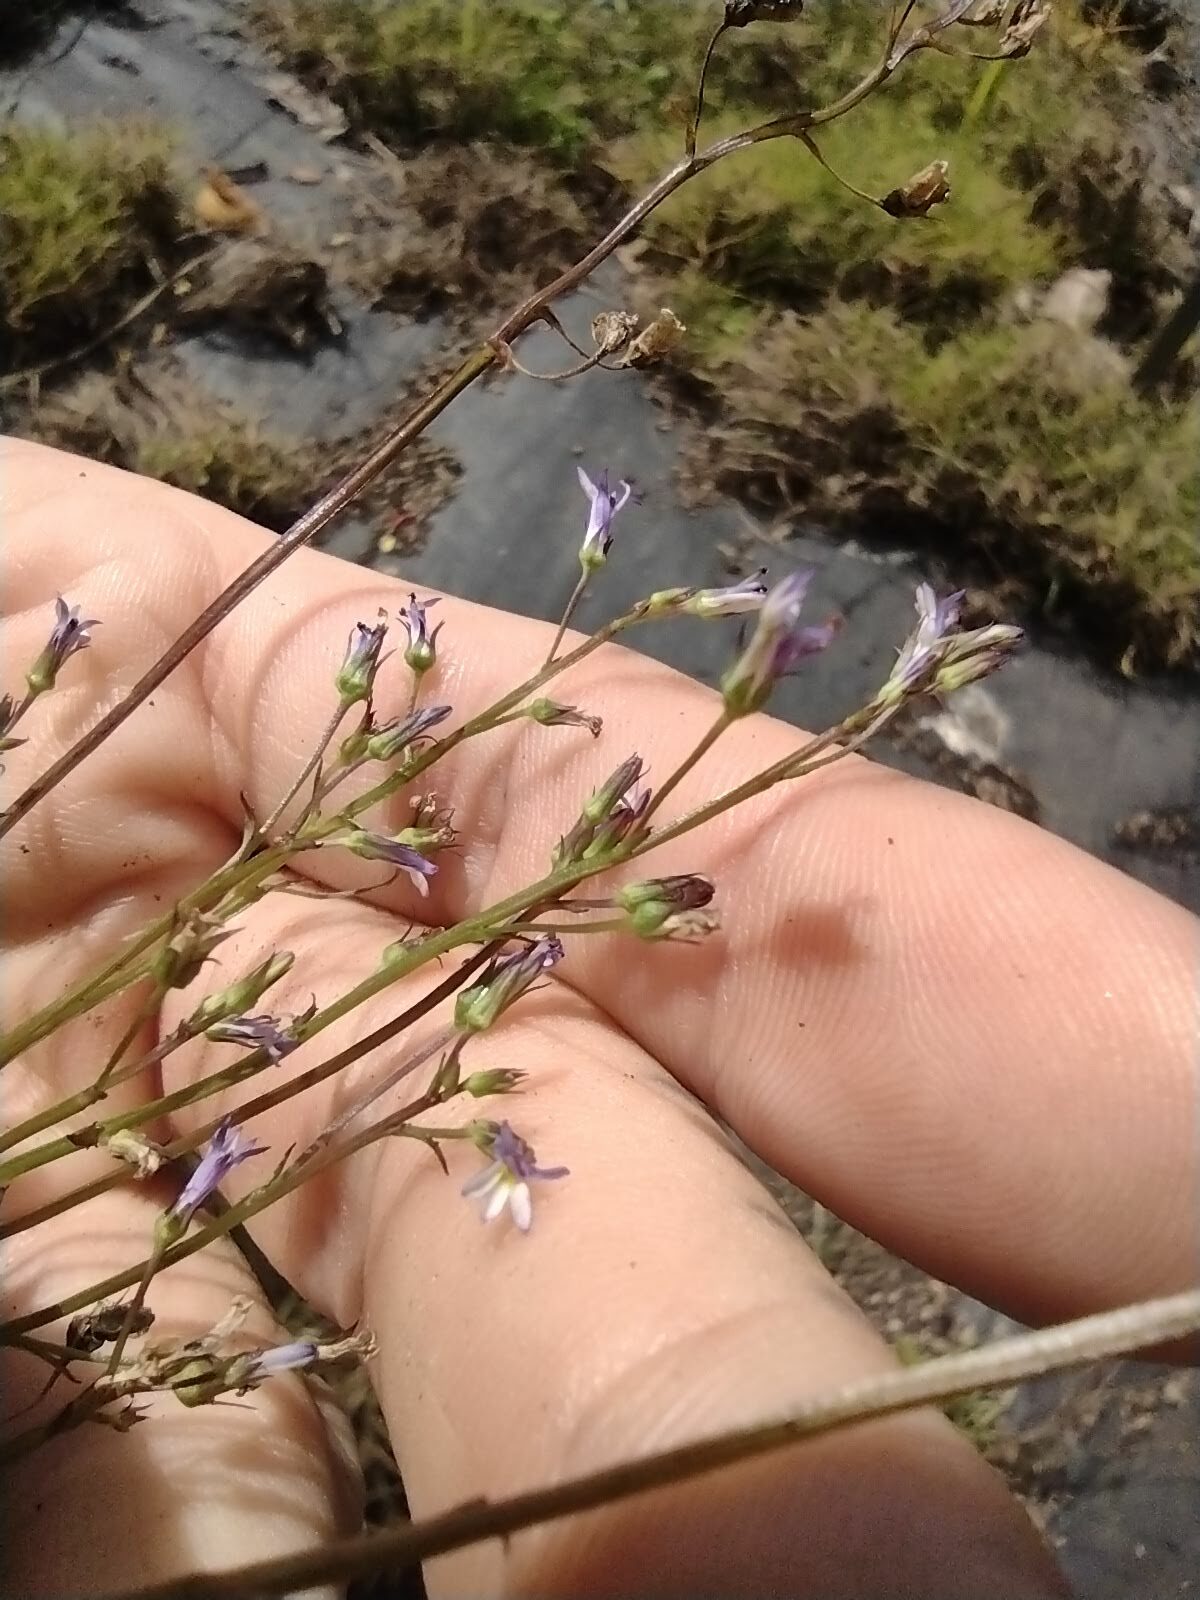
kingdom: Plantae
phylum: Tracheophyta
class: Magnoliopsida
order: Asterales
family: Campanulaceae
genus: Lobelia
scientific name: Lobelia xalapensis
